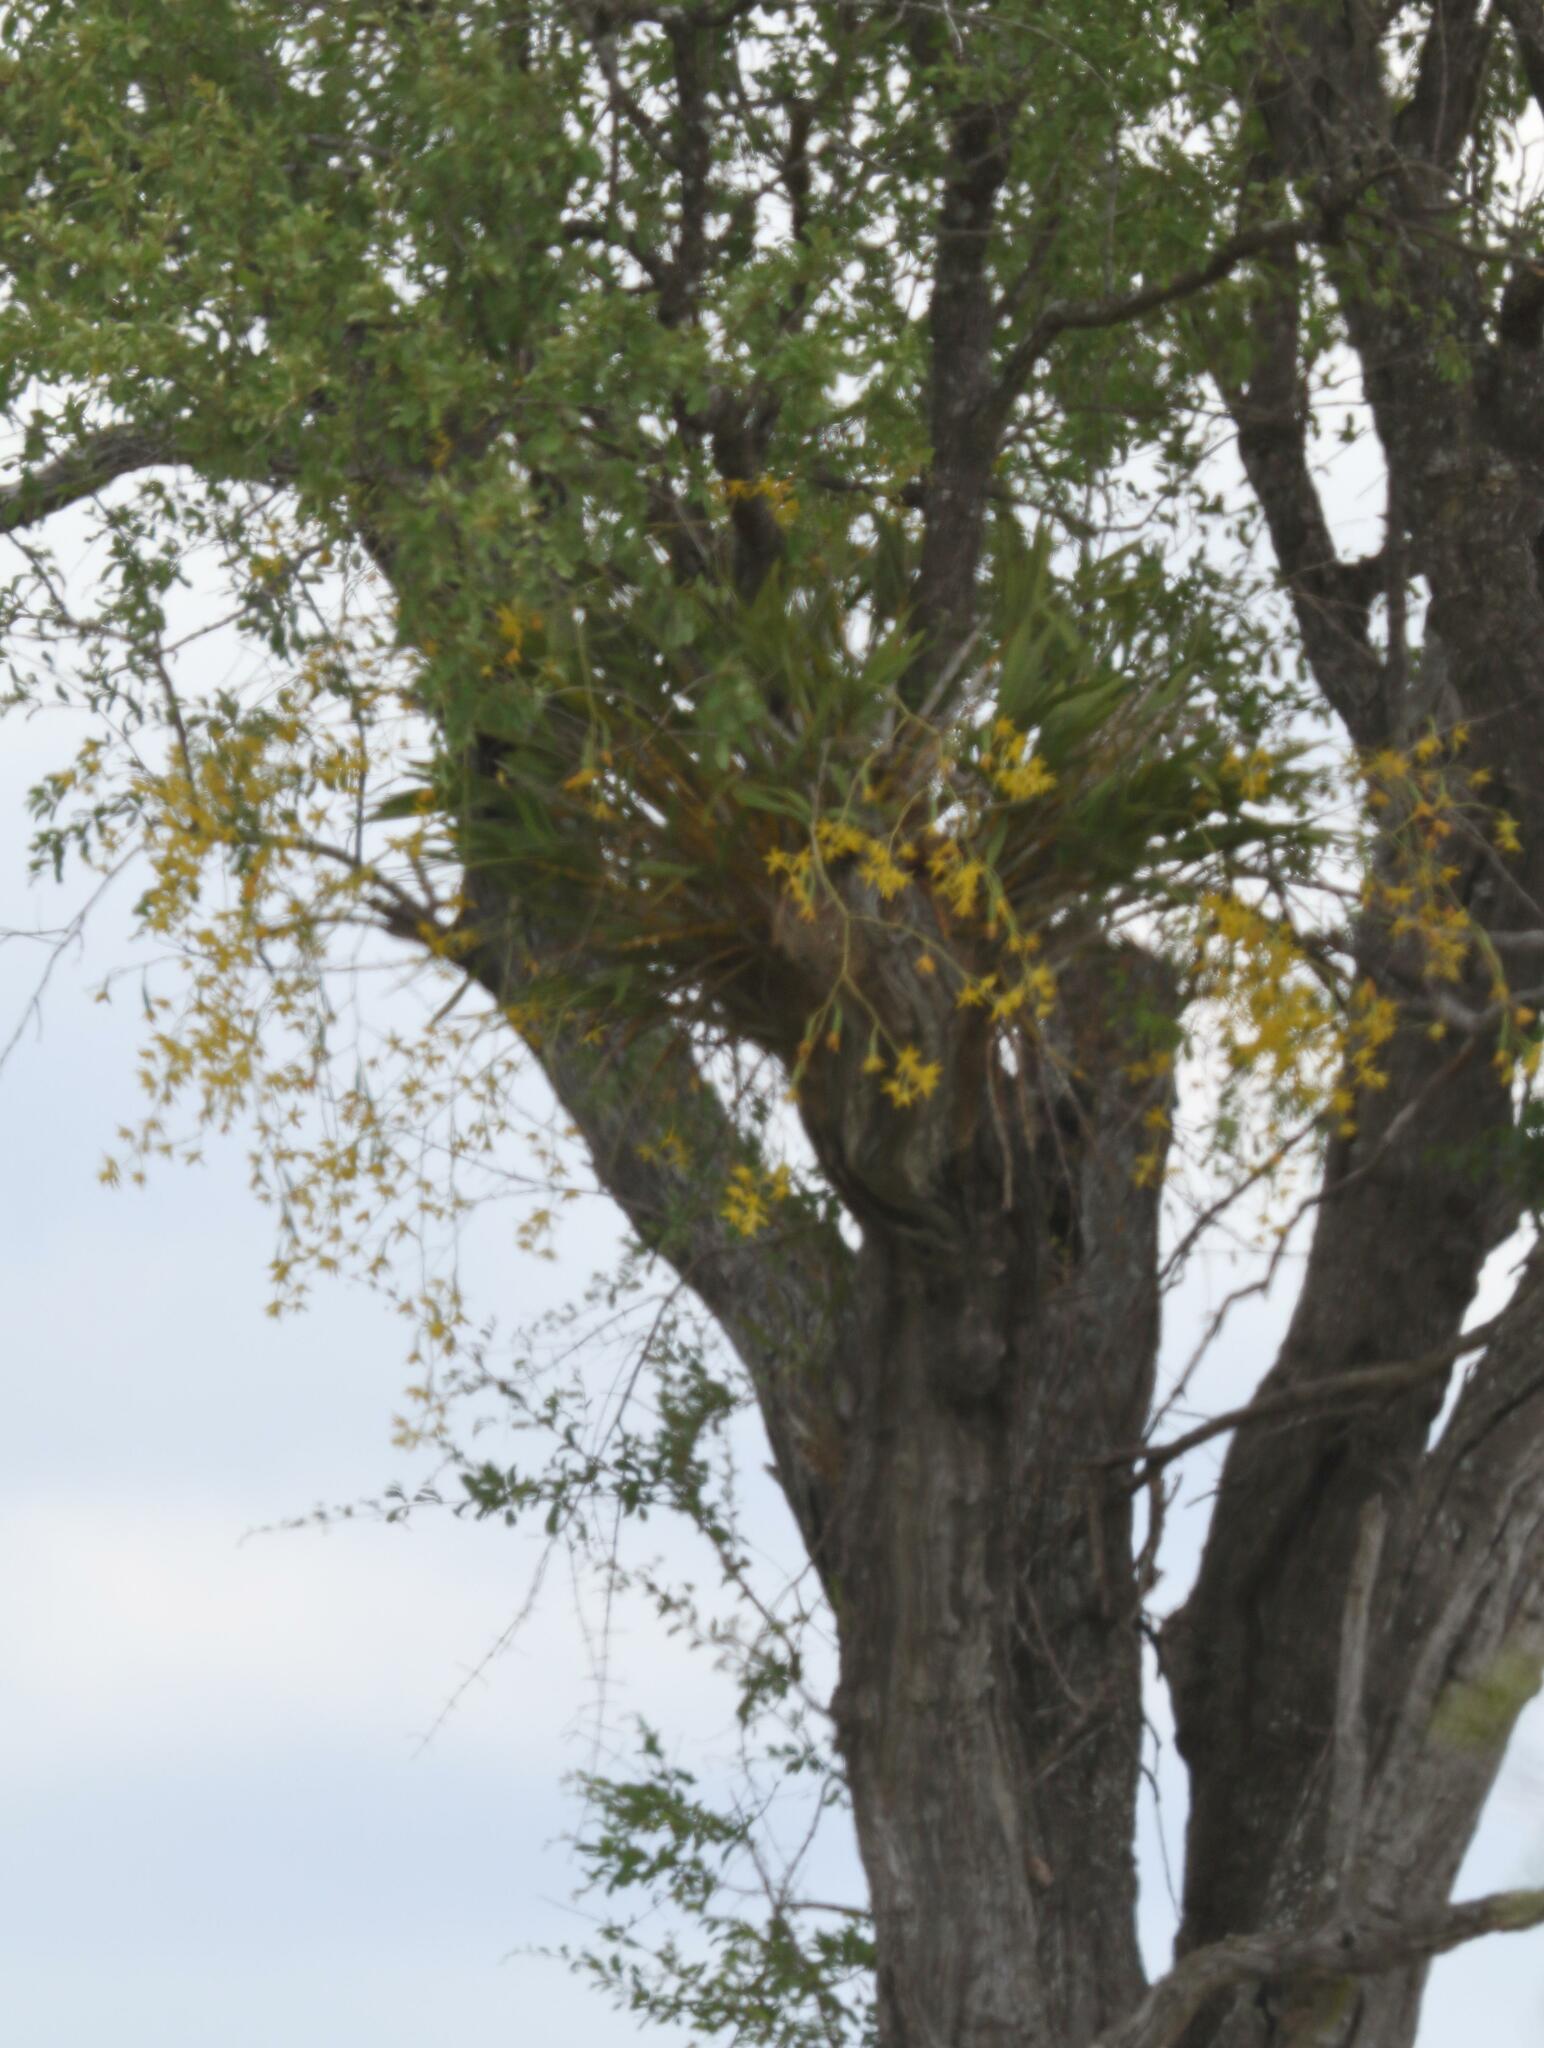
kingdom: Plantae
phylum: Tracheophyta
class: Liliopsida
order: Asparagales
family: Orchidaceae
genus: Ansellia
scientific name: Ansellia africana
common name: African ansellia
